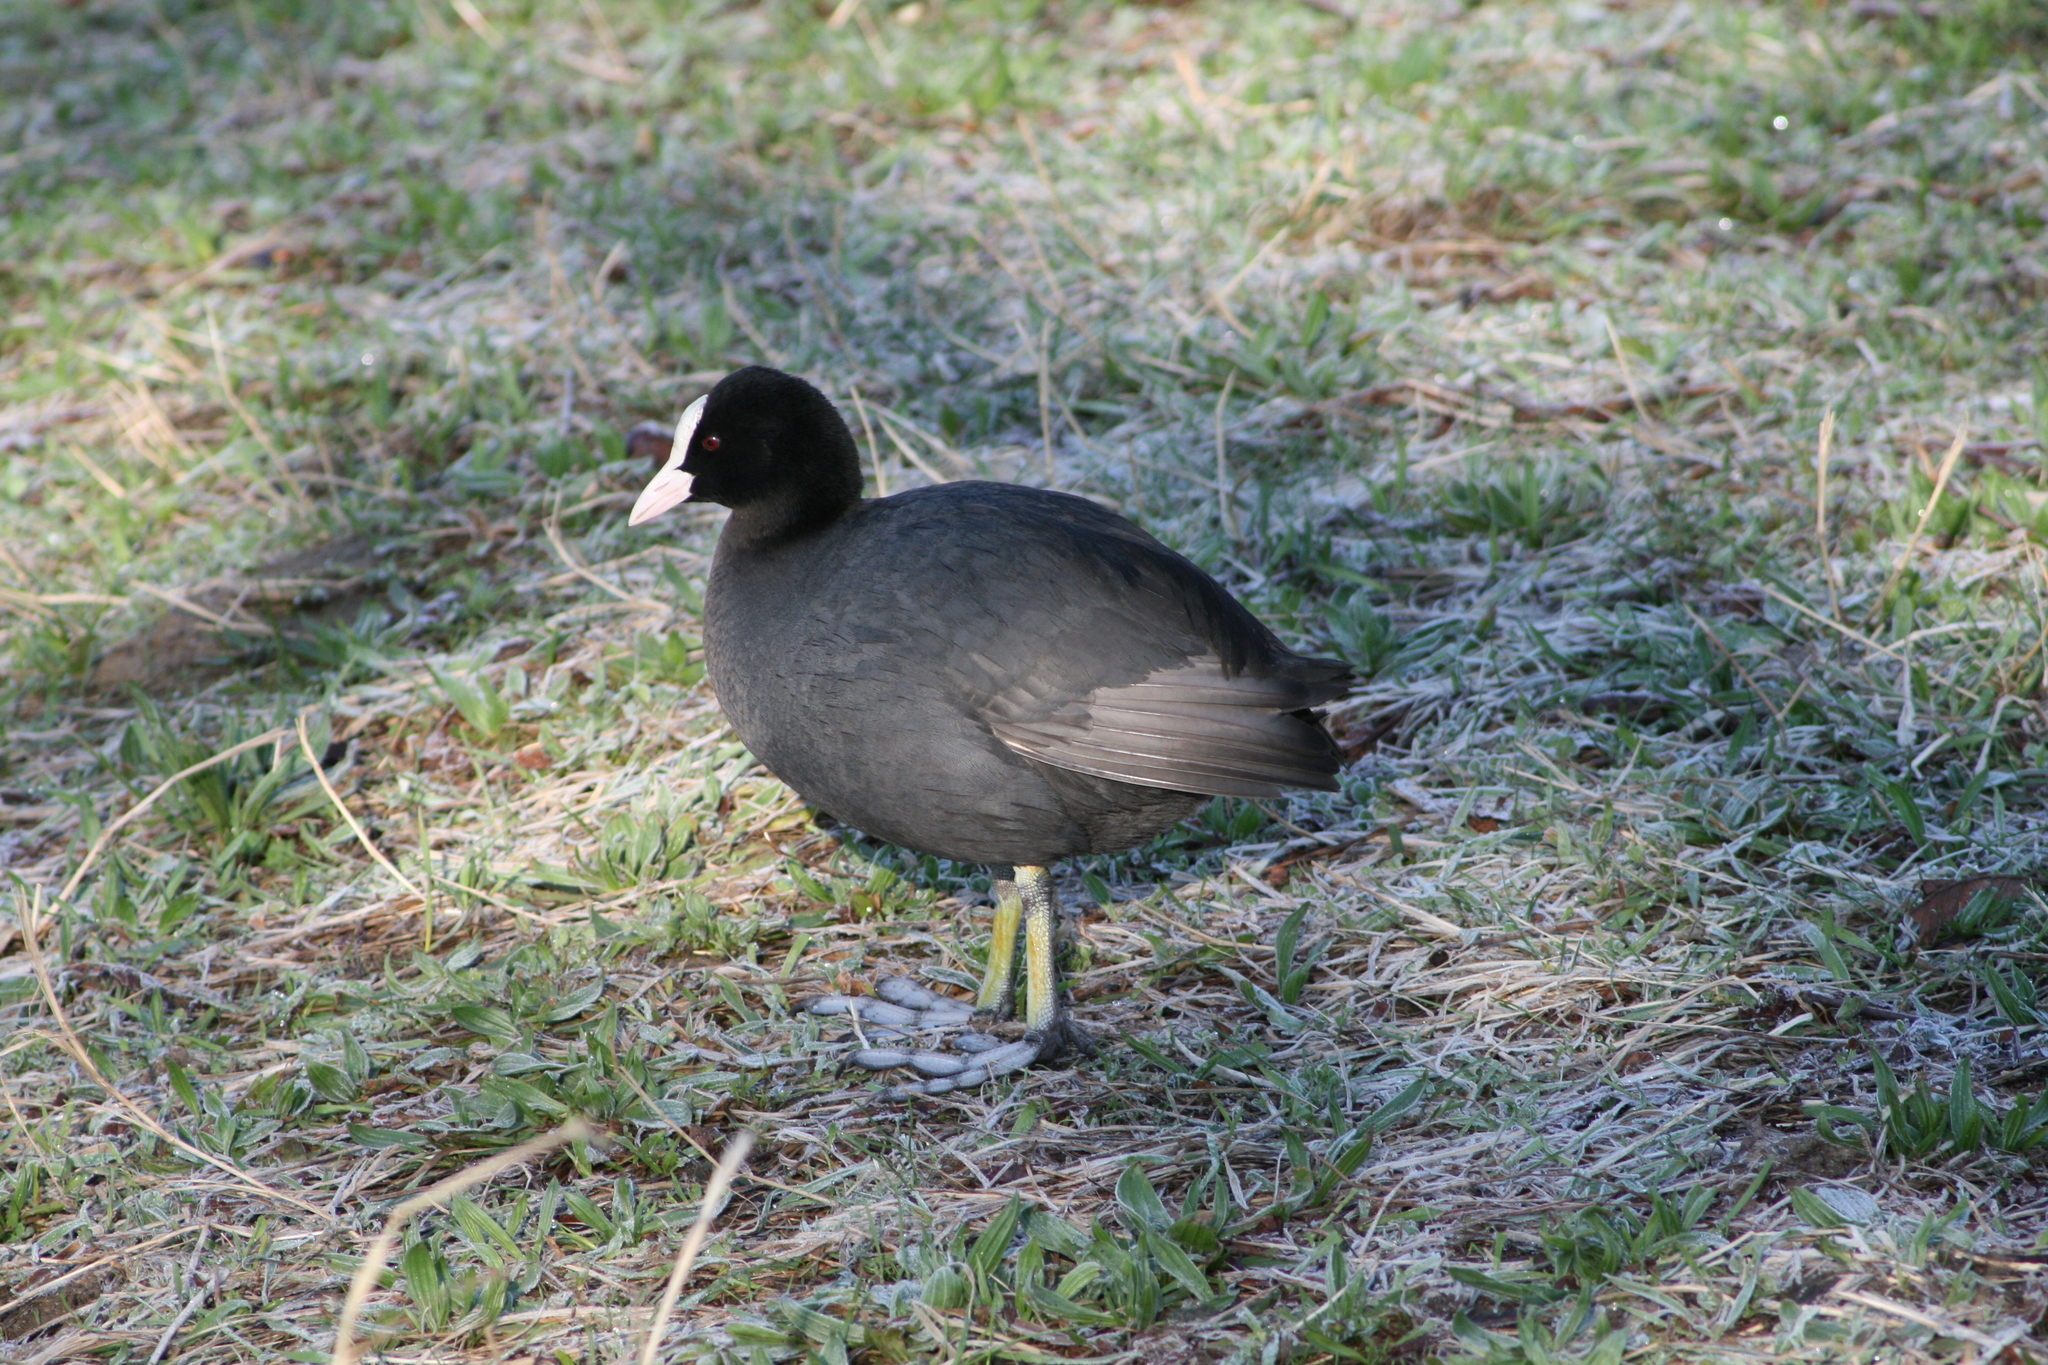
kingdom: Animalia
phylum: Chordata
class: Aves
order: Gruiformes
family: Rallidae
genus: Fulica
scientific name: Fulica atra
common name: Eurasian coot
